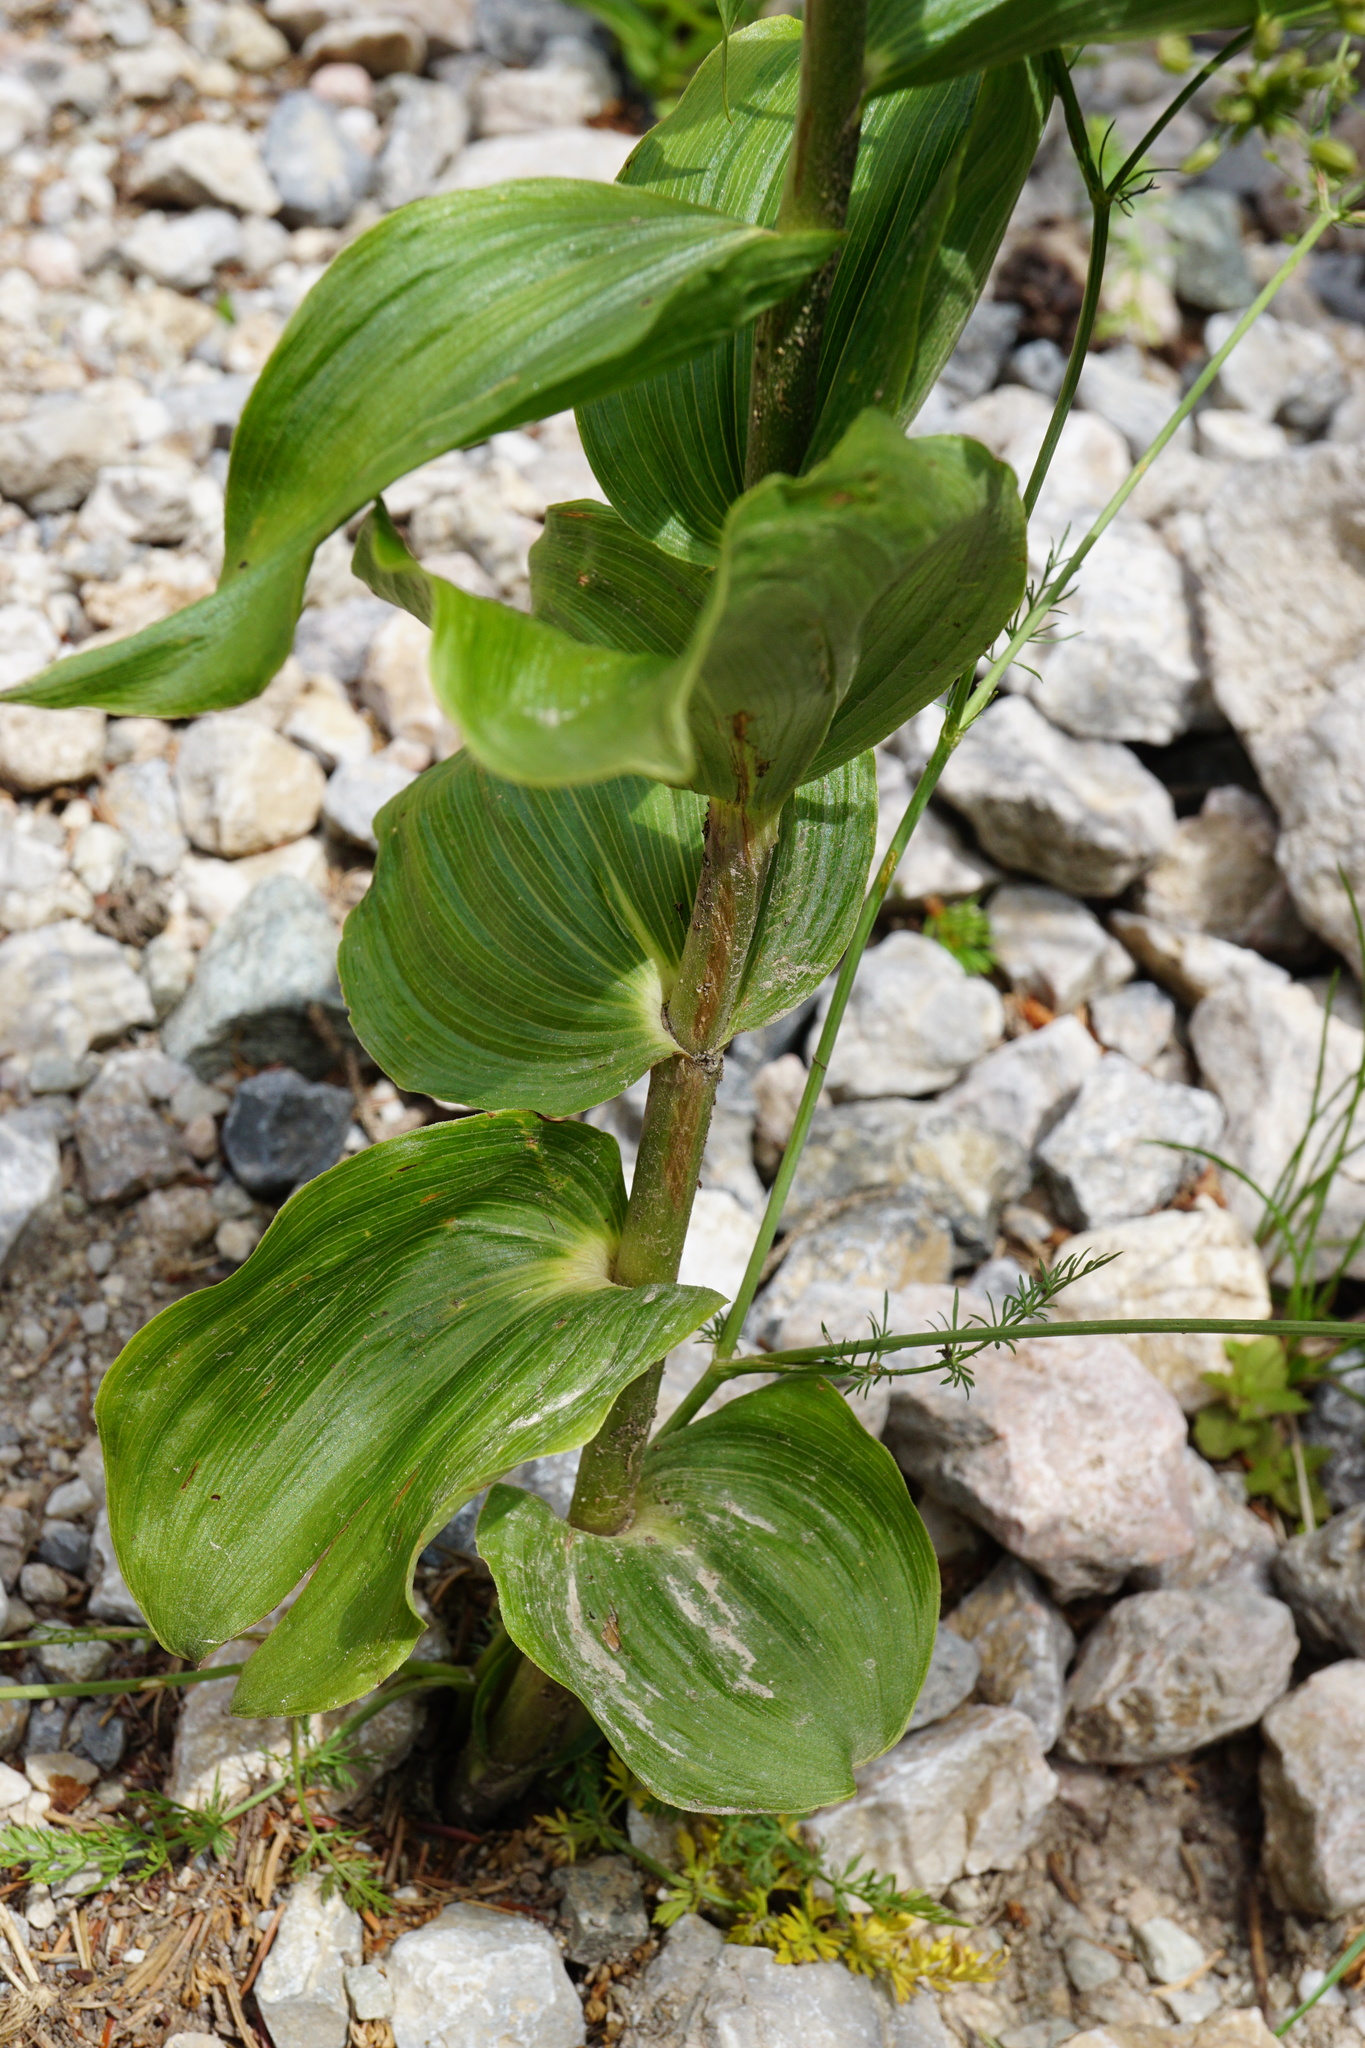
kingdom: Plantae
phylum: Tracheophyta
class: Liliopsida
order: Asparagales
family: Orchidaceae
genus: Epipactis
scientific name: Epipactis helleborine
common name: Broad-leaved helleborine
